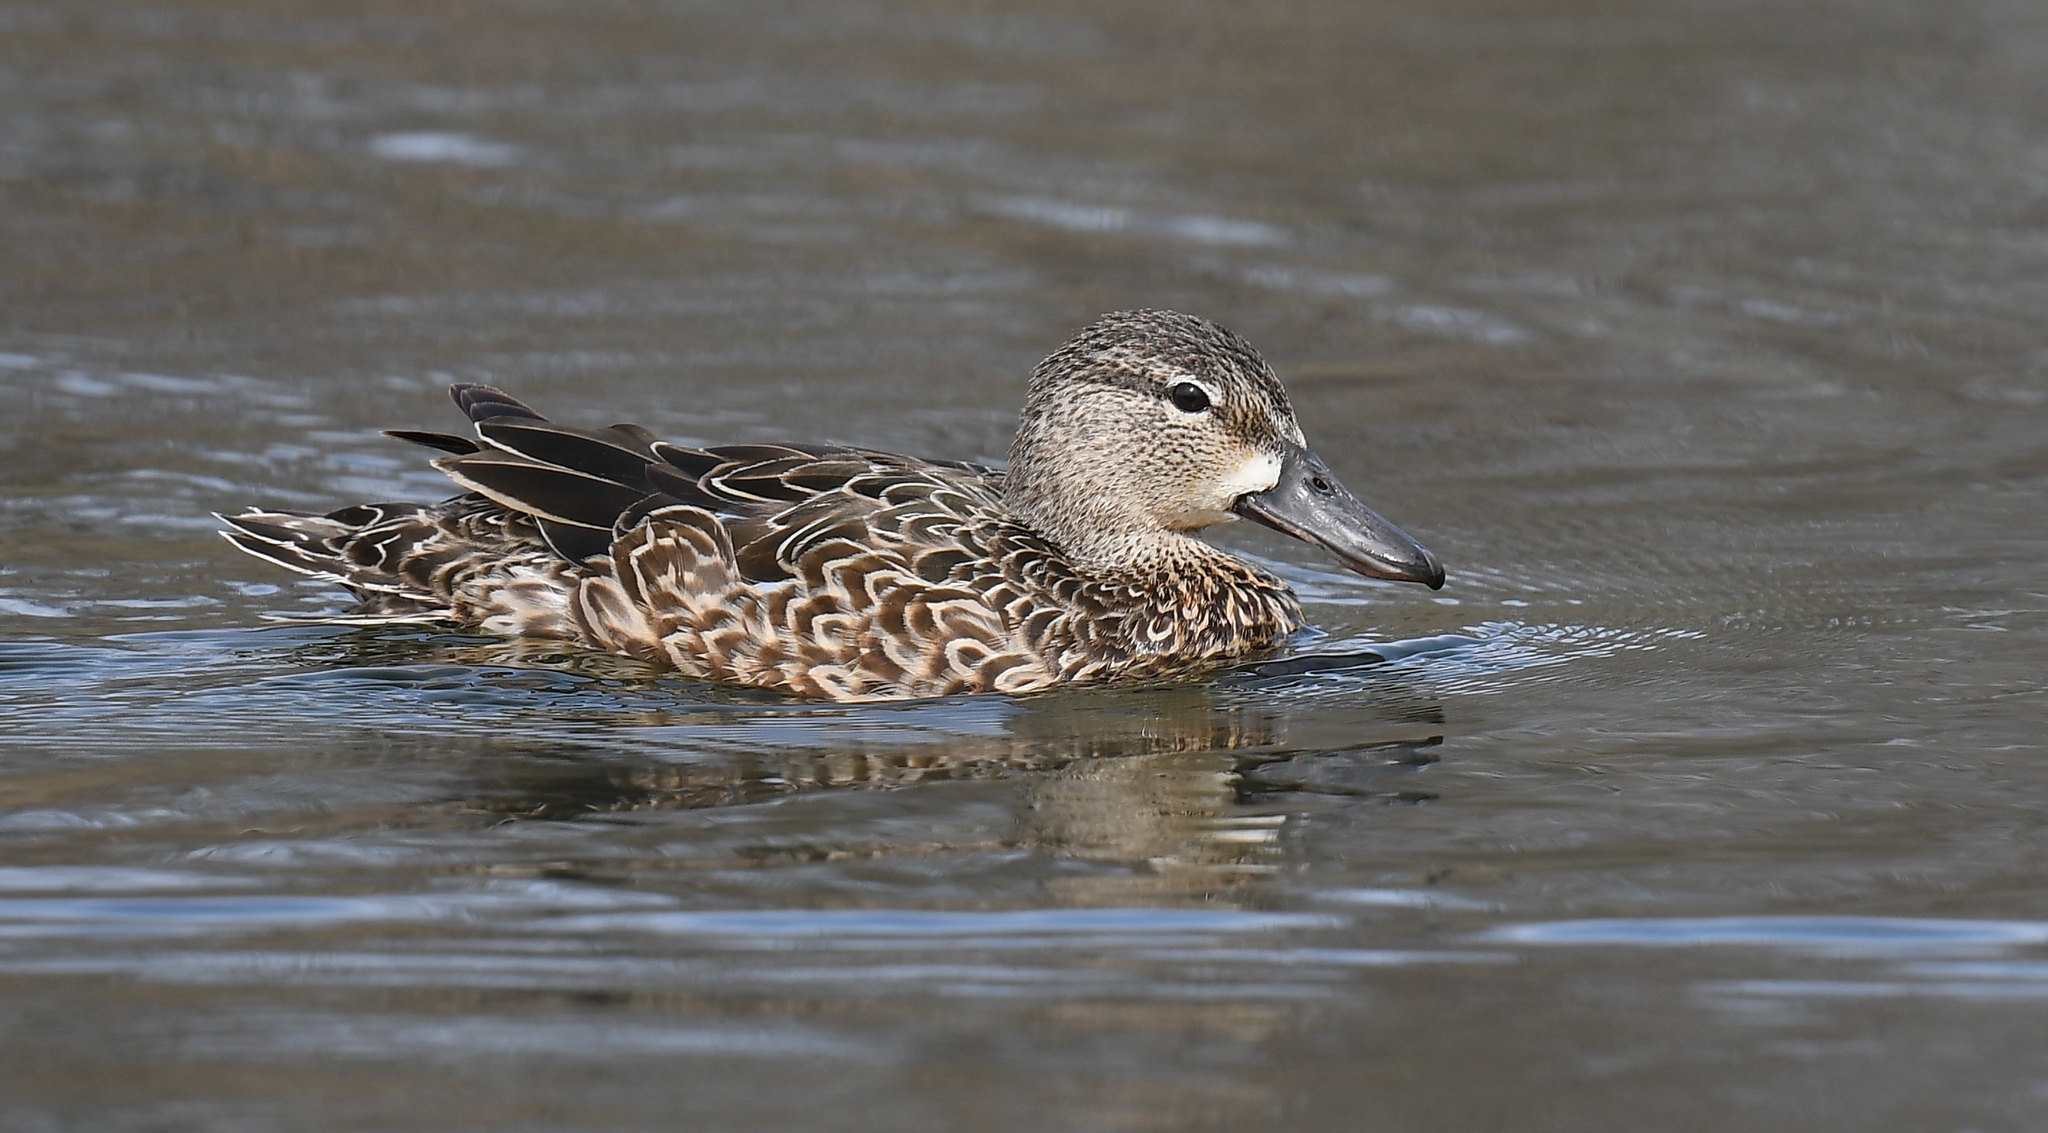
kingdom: Animalia
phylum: Chordata
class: Aves
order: Anseriformes
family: Anatidae
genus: Spatula
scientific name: Spatula discors
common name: Blue-winged teal
